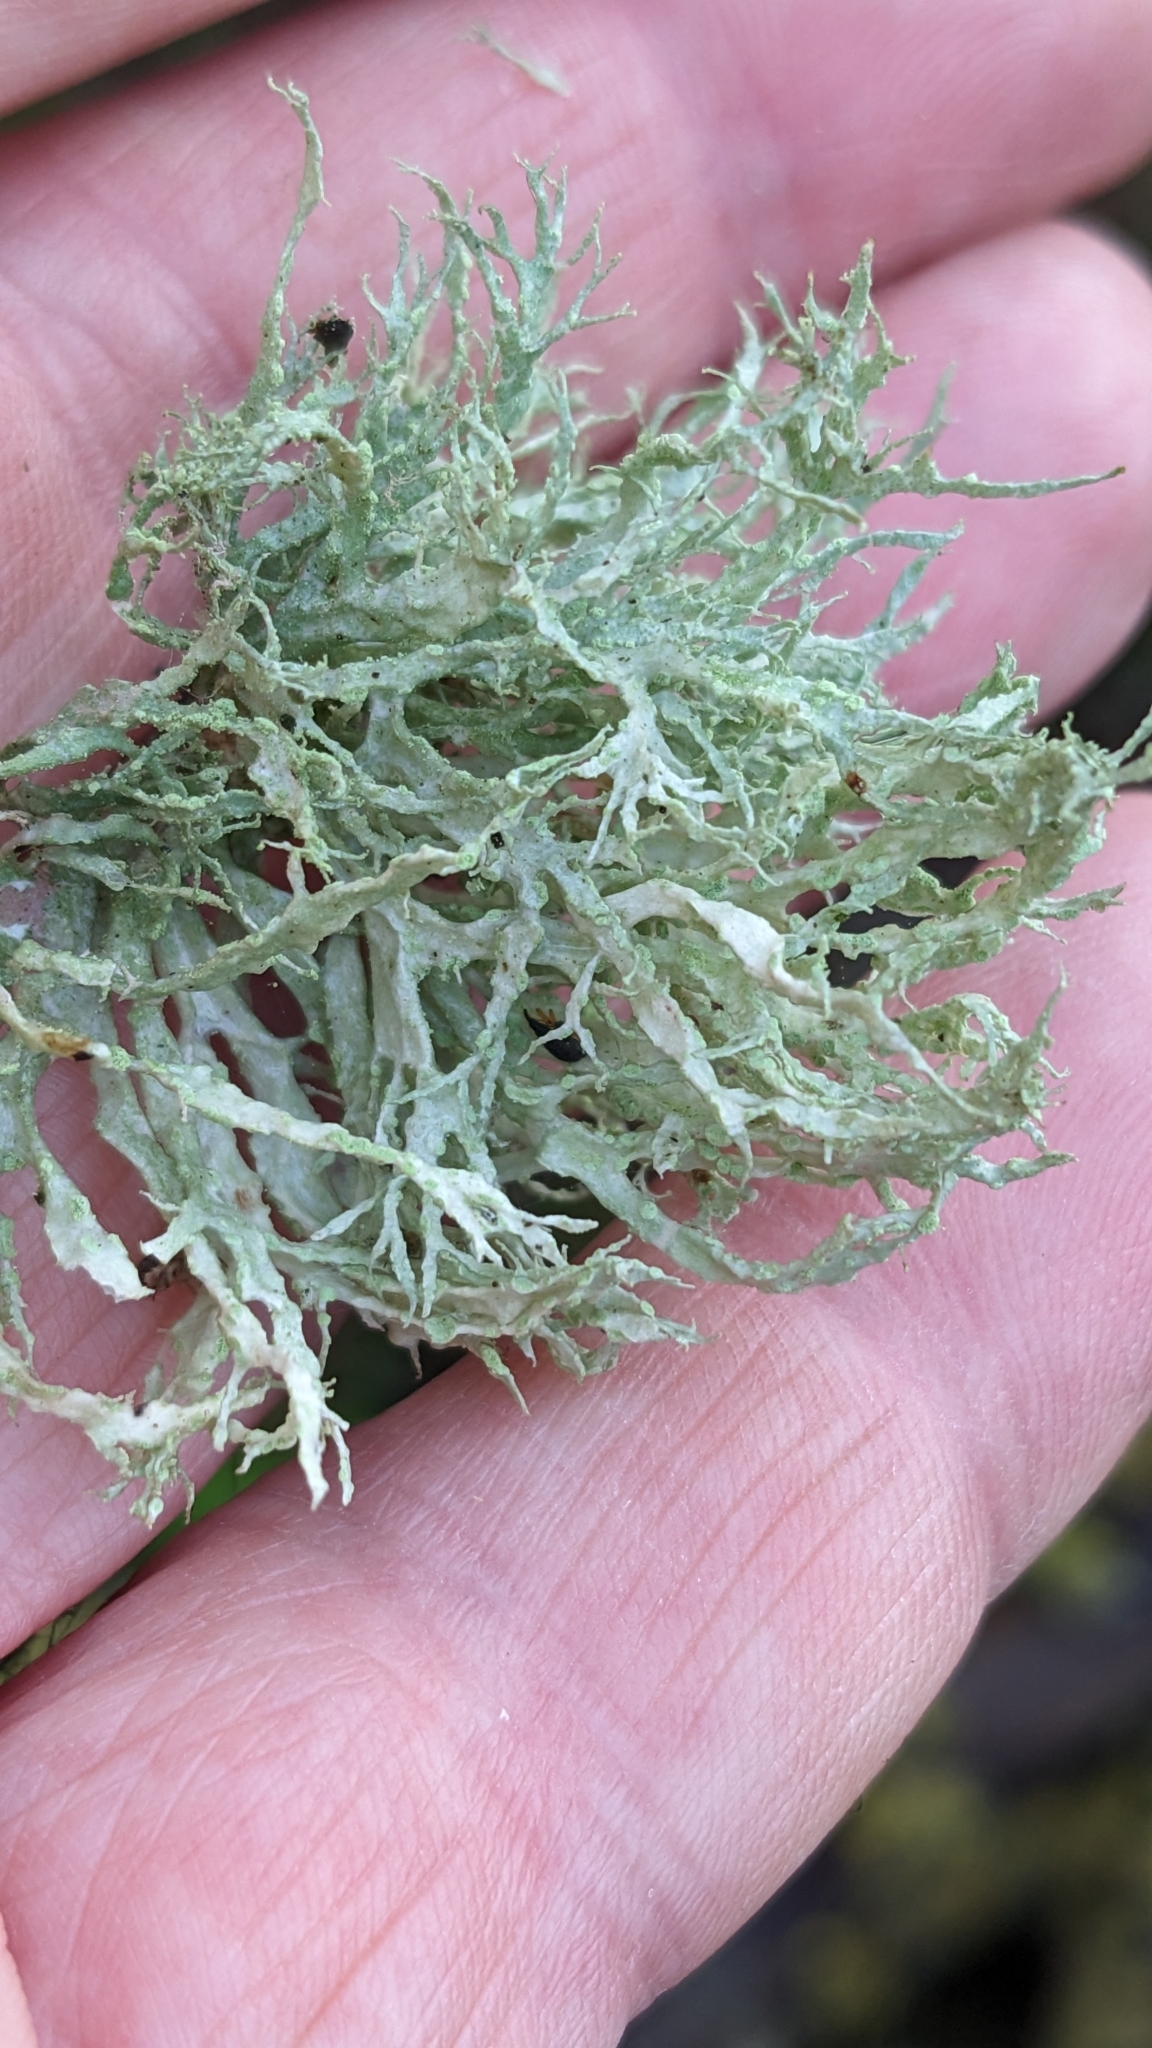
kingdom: Fungi
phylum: Ascomycota
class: Lecanoromycetes
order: Lecanorales
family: Ramalinaceae
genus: Ramalina
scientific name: Ramalina farinacea
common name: Farinose cartilage lichen
